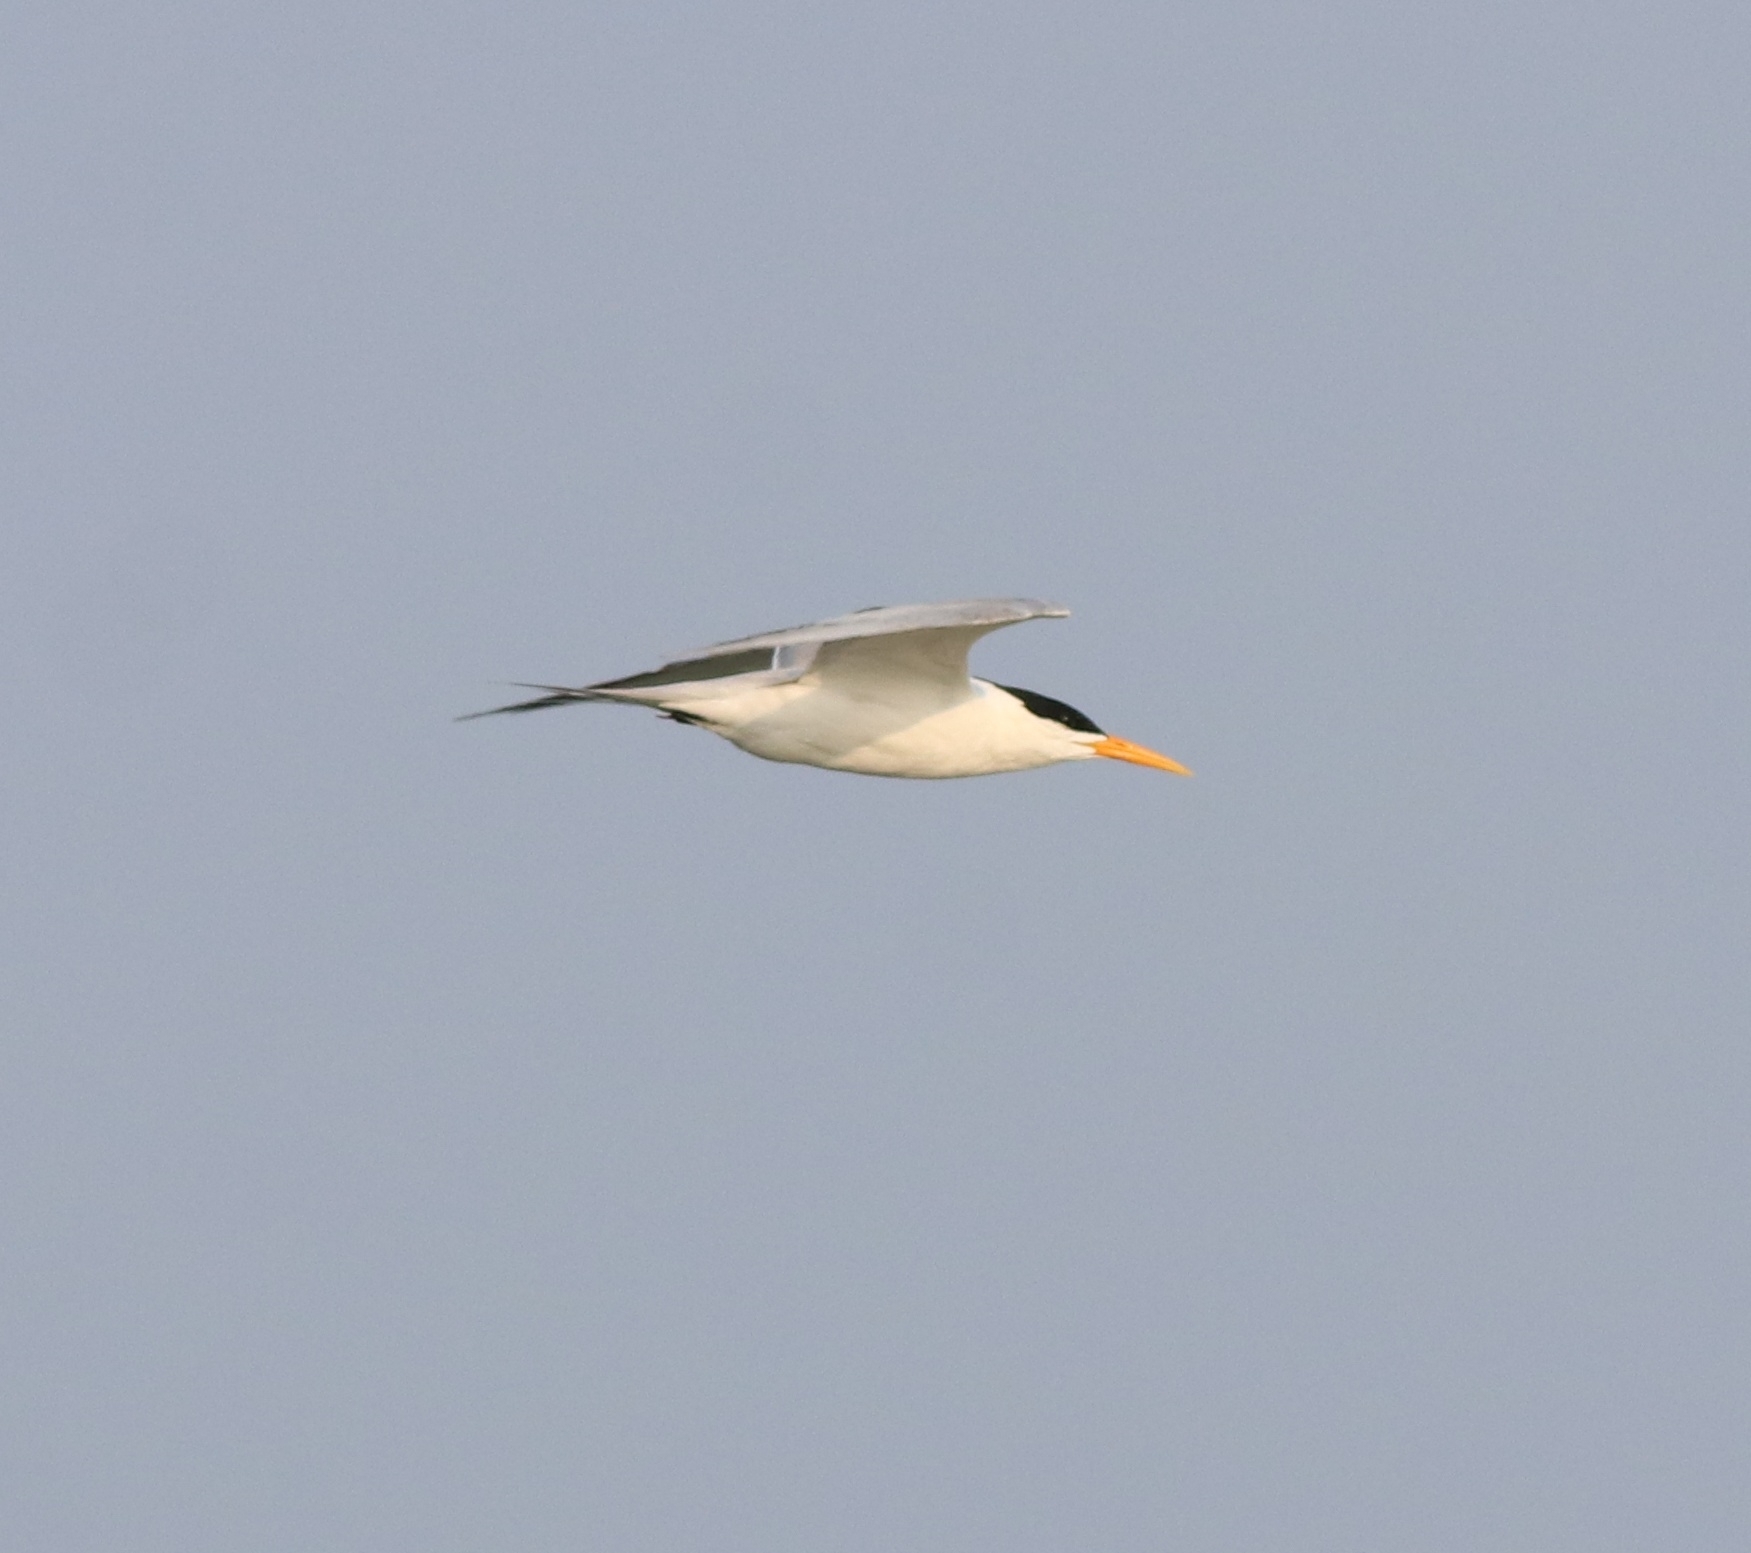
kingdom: Animalia
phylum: Chordata
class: Aves
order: Charadriiformes
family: Laridae
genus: Thalasseus
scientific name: Thalasseus bengalensis
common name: Lesser crested tern
